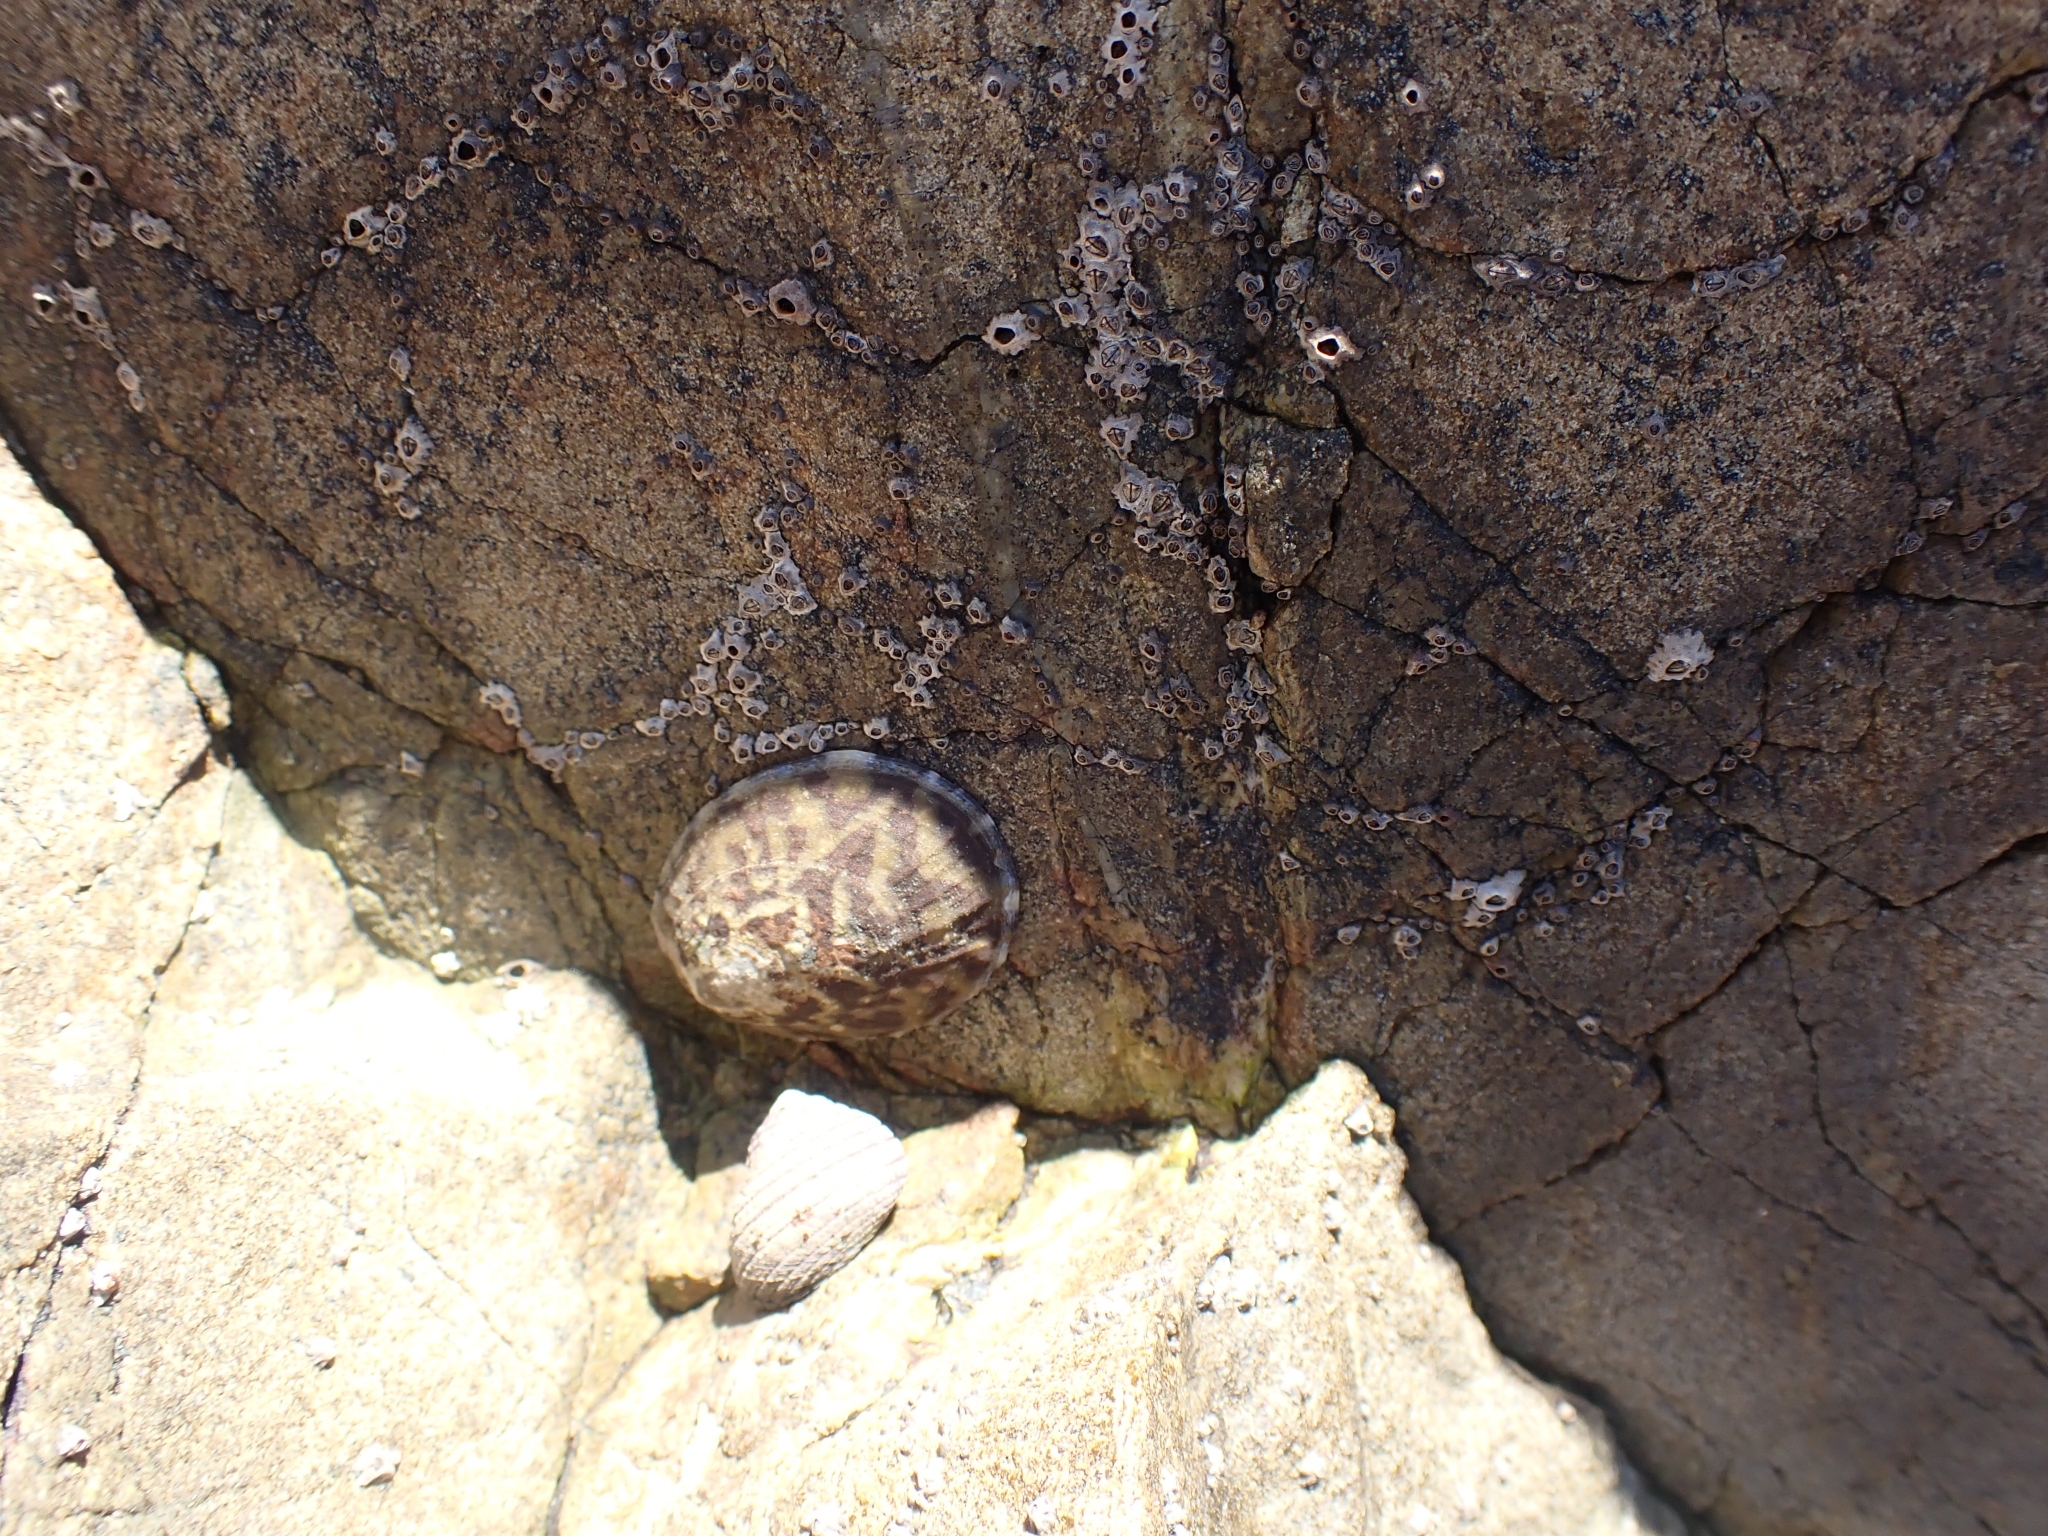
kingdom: Animalia
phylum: Mollusca
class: Gastropoda
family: Nacellidae
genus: Cellana
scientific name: Cellana radians
